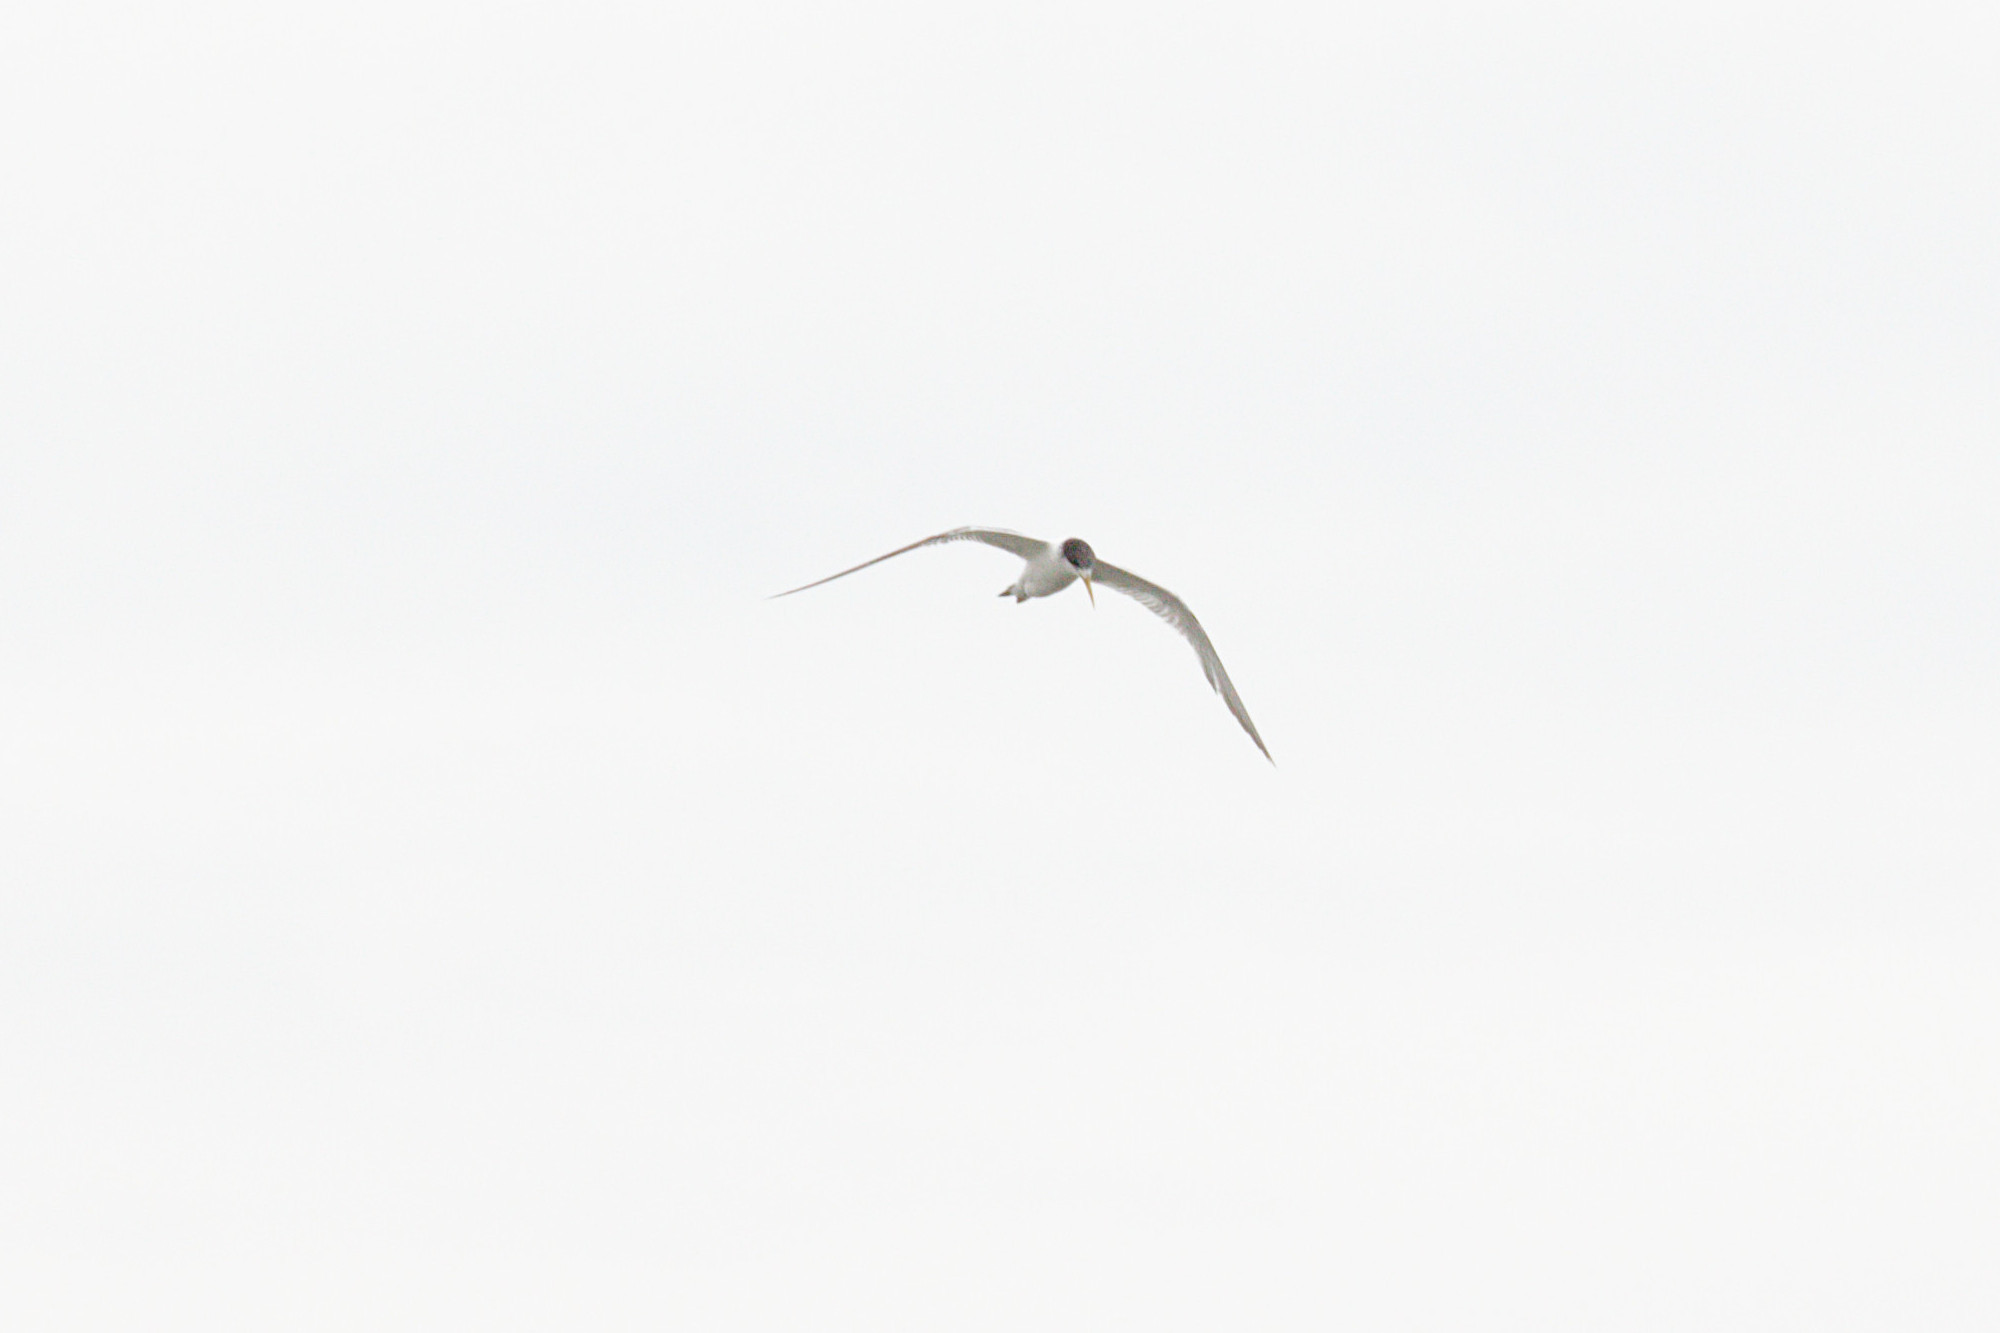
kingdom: Animalia
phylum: Chordata
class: Aves
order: Charadriiformes
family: Laridae
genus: Thalasseus
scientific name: Thalasseus bergii
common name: Greater crested tern
